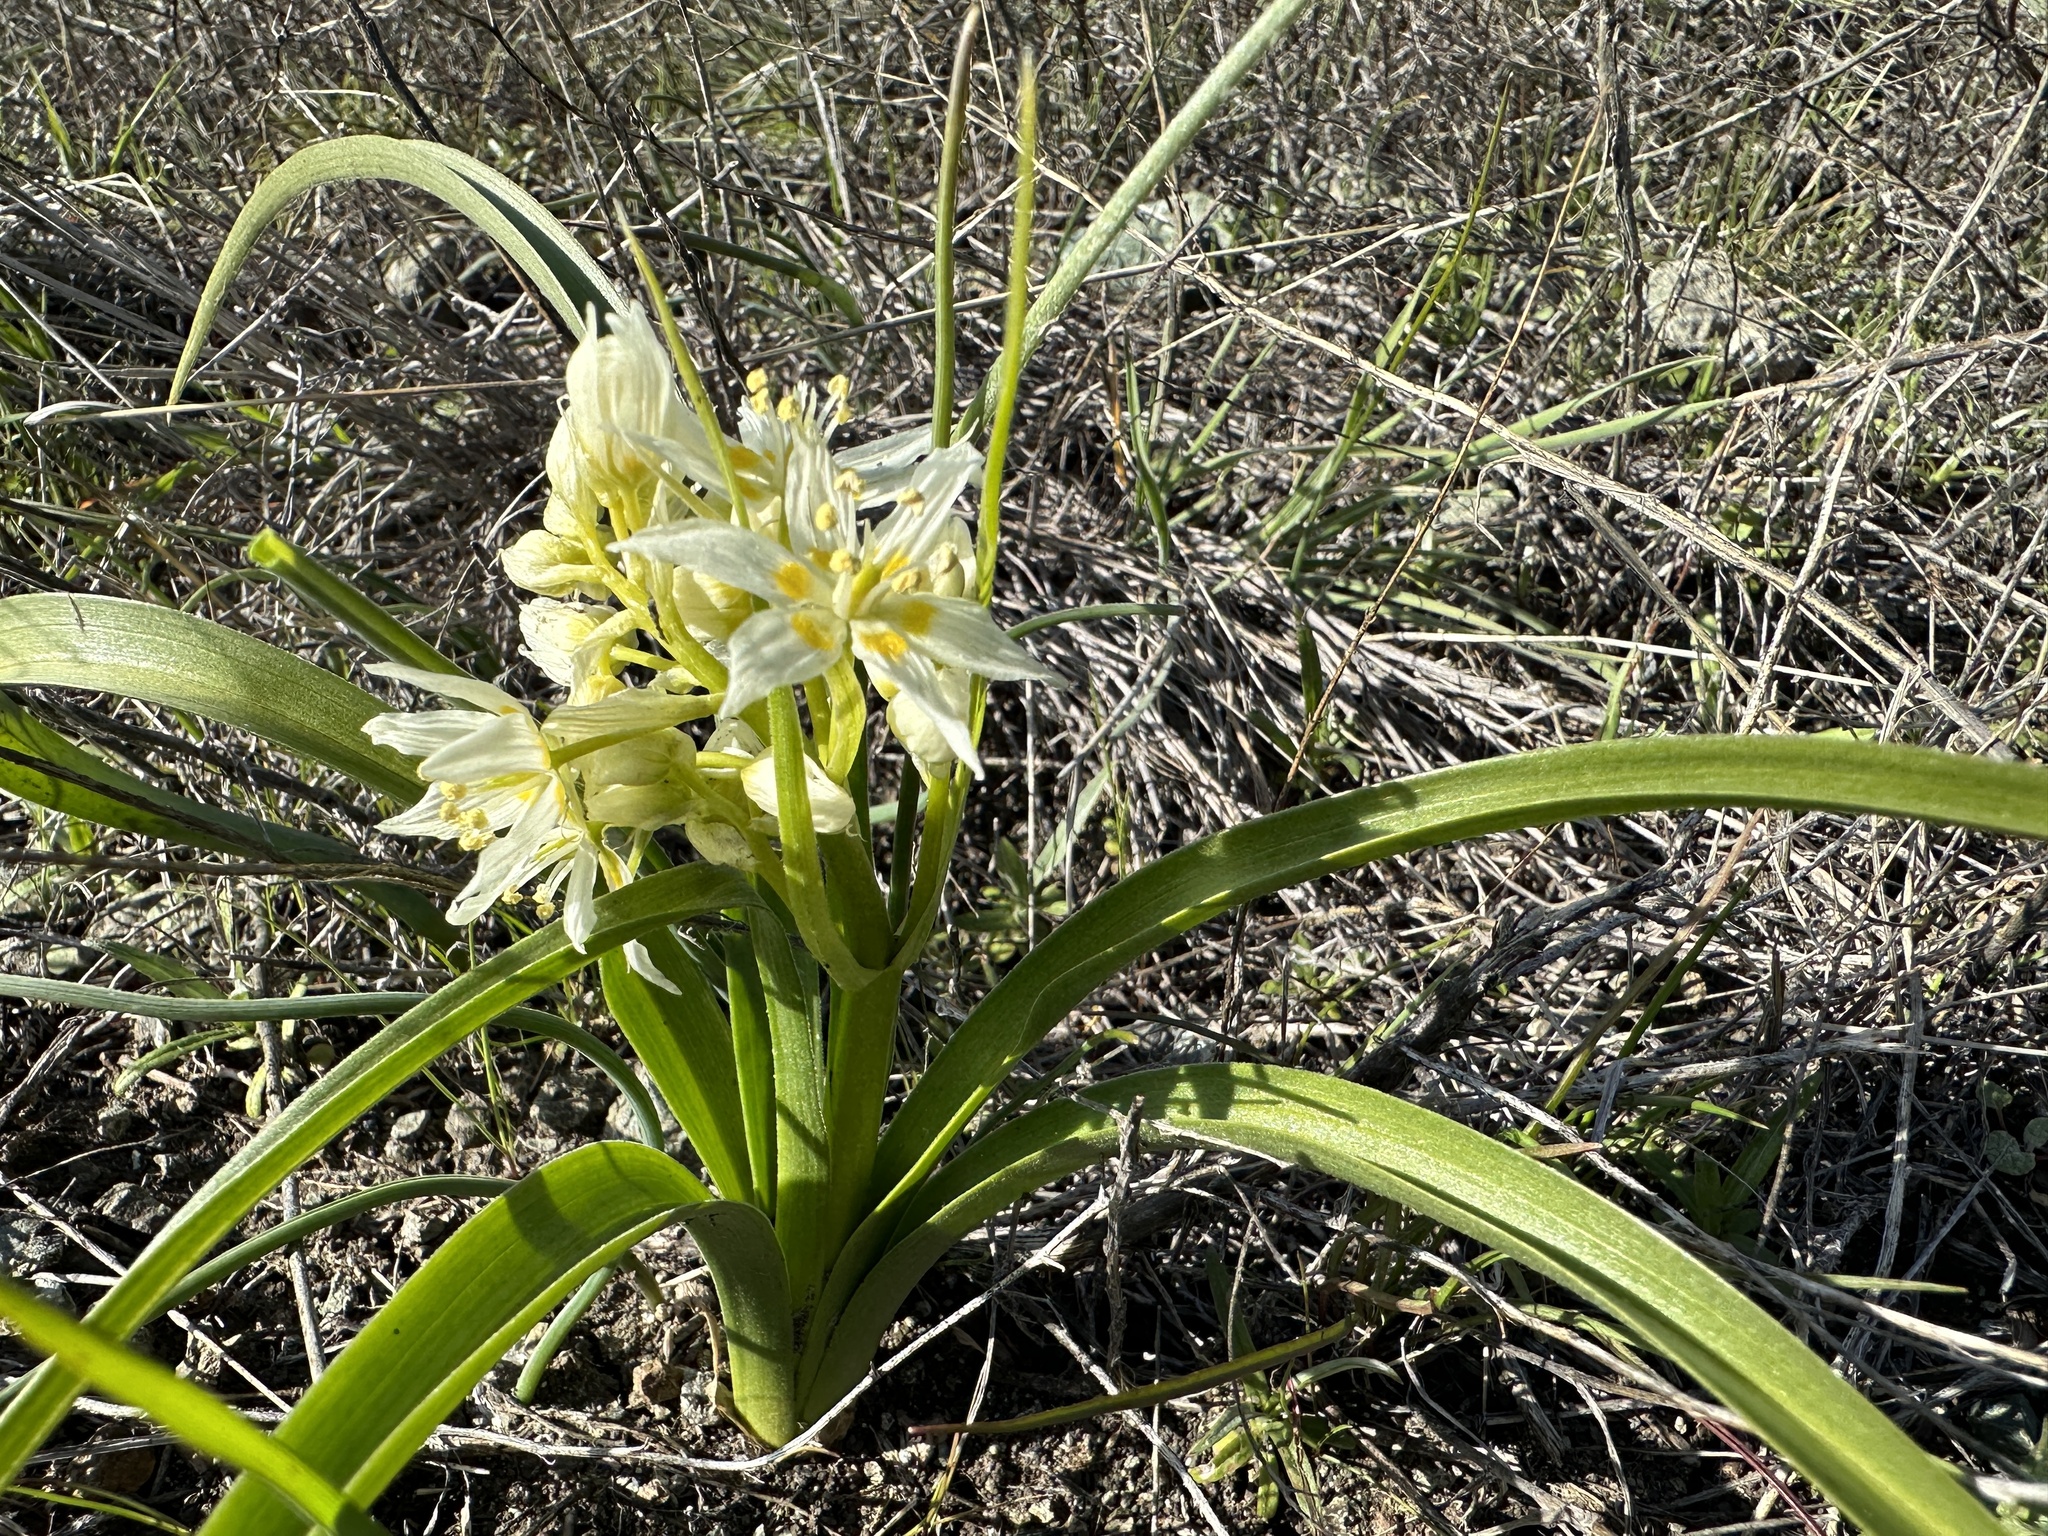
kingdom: Plantae
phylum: Tracheophyta
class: Liliopsida
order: Liliales
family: Melanthiaceae
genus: Toxicoscordion
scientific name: Toxicoscordion fremontii
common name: Fremont's death camas
